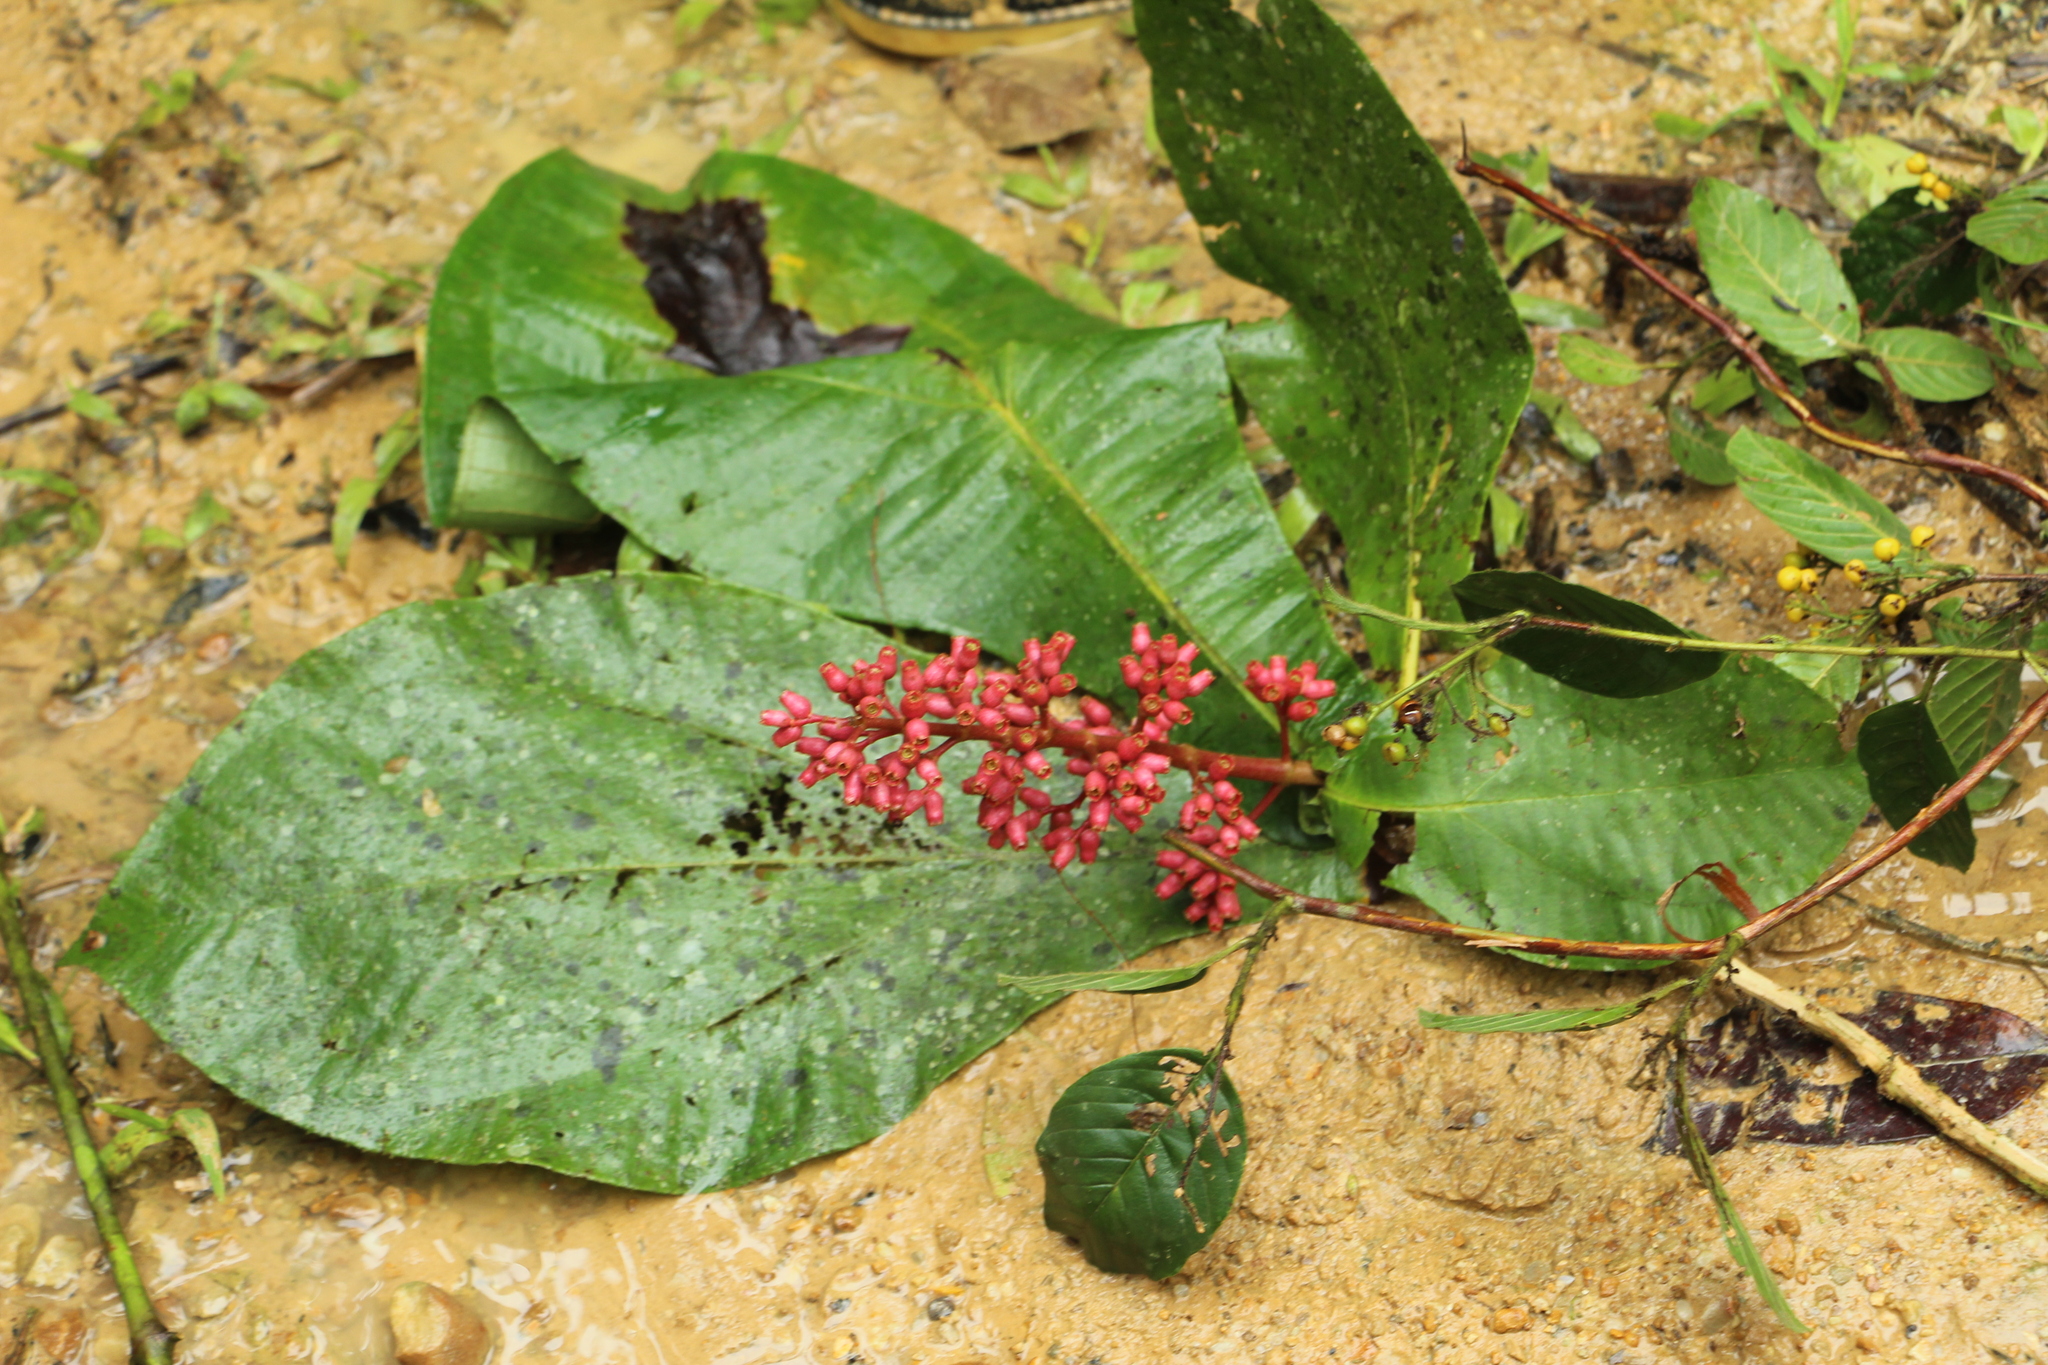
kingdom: Plantae
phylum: Tracheophyta
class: Magnoliopsida
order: Myrtales
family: Melastomataceae
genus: Miconia
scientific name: Miconia tomentosa
